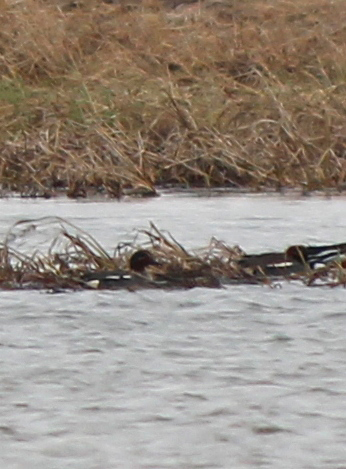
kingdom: Animalia
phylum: Chordata
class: Aves
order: Anseriformes
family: Anatidae
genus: Anas
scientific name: Anas crecca
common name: Eurasian teal
